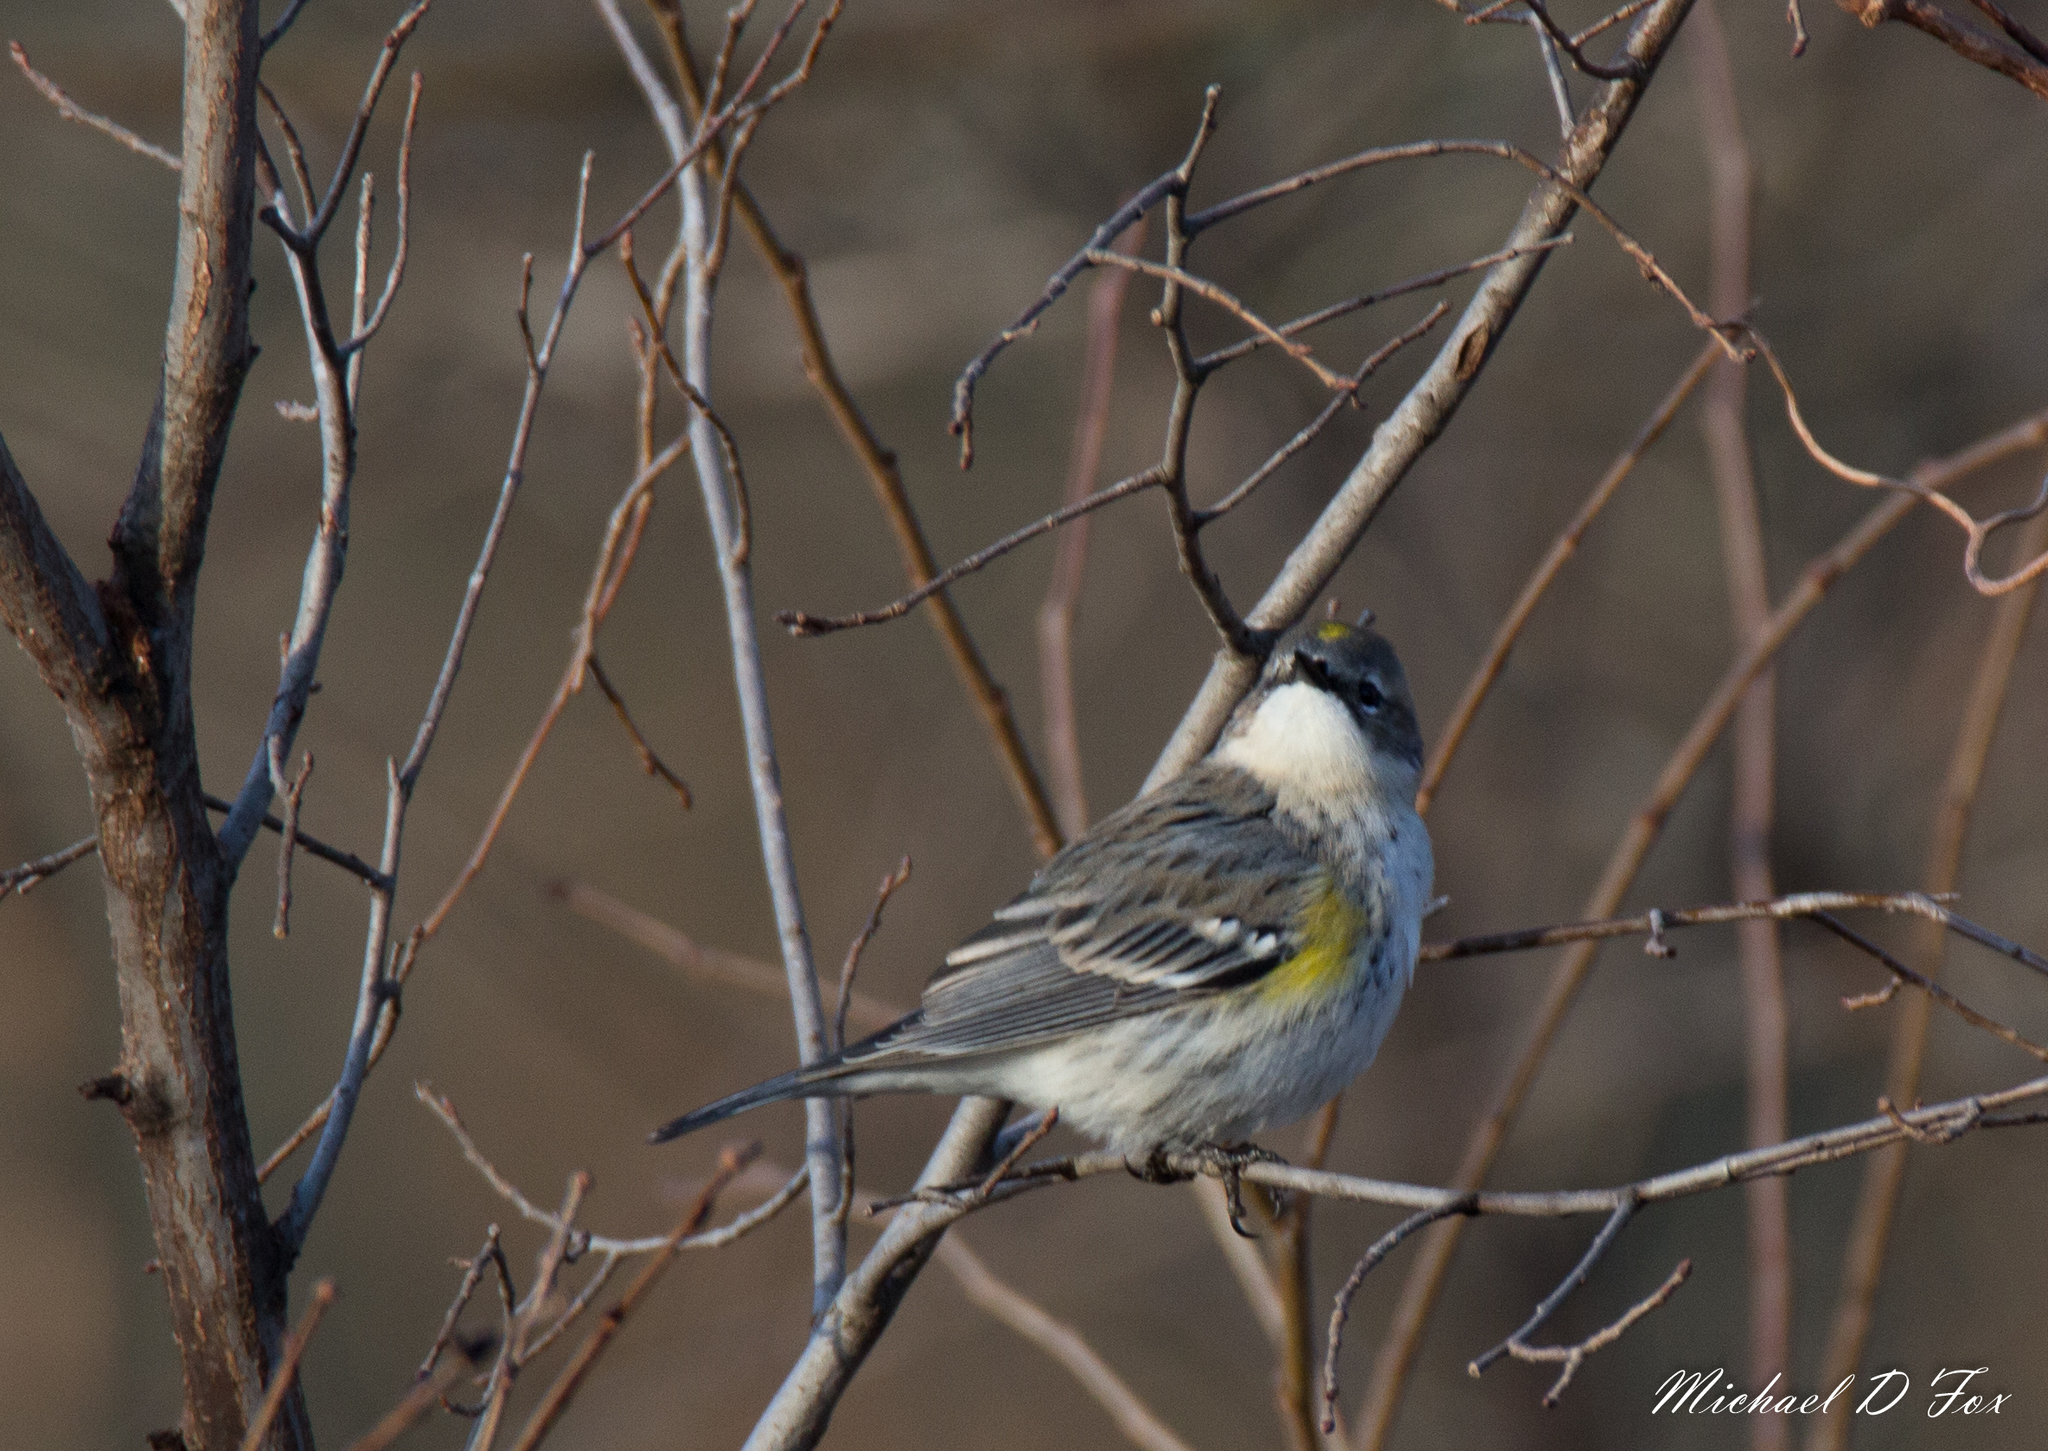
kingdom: Animalia
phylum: Chordata
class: Aves
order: Passeriformes
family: Parulidae
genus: Setophaga
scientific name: Setophaga coronata
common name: Myrtle warbler
